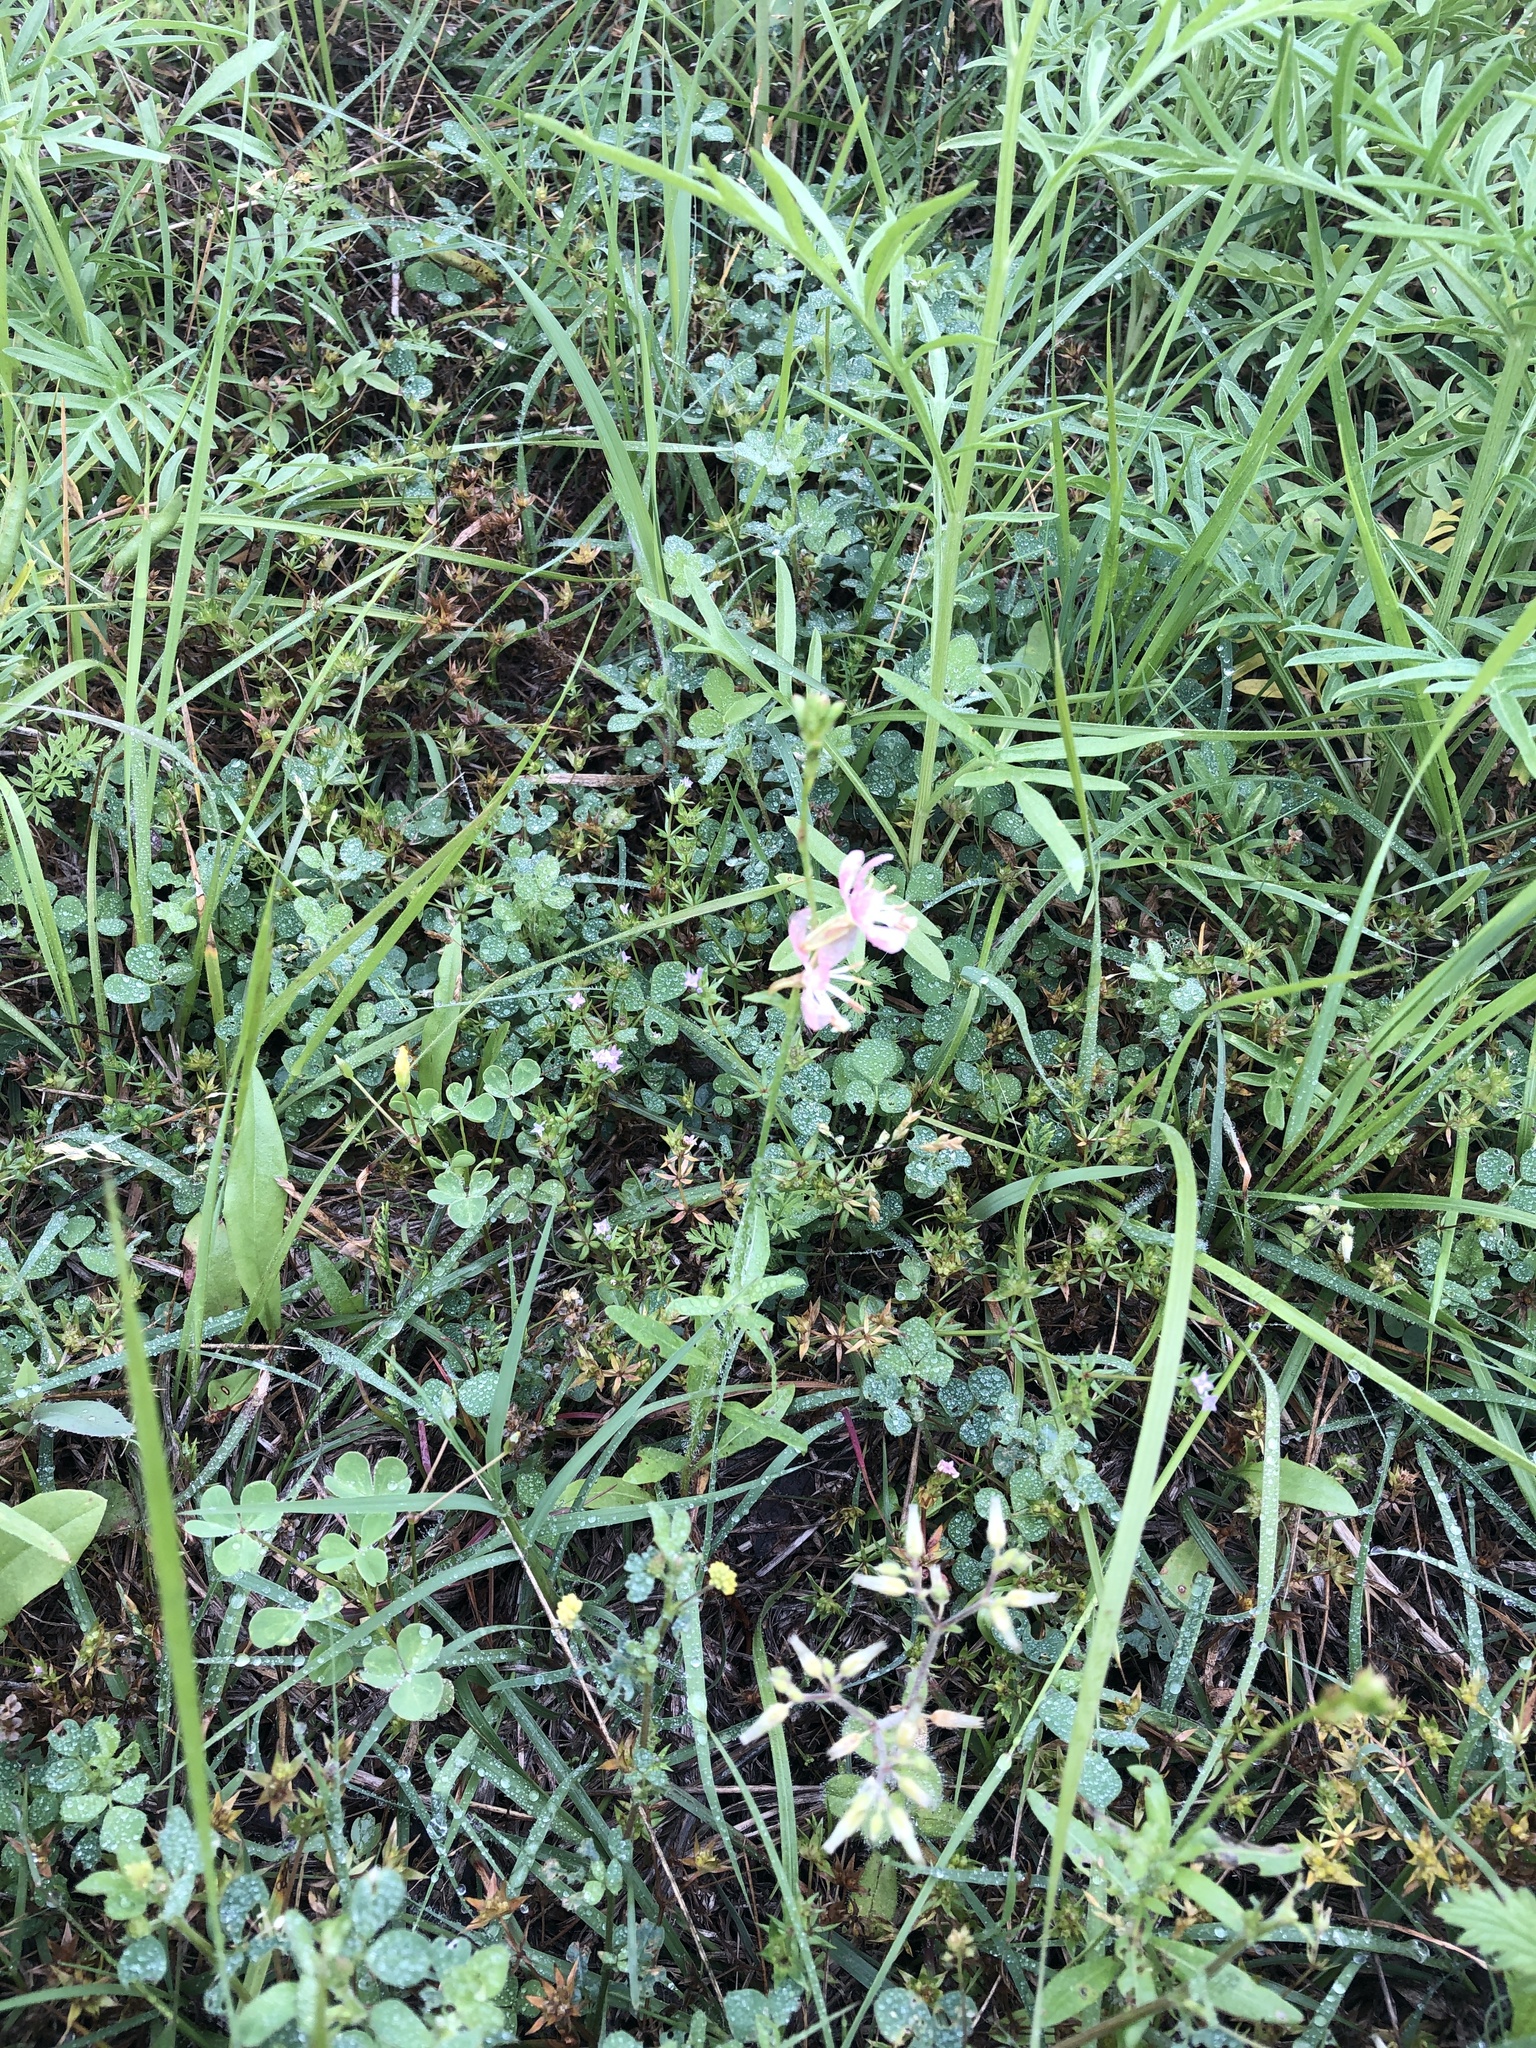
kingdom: Plantae
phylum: Tracheophyta
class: Magnoliopsida
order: Myrtales
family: Onagraceae
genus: Oenothera
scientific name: Oenothera suffulta
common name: Kisses
